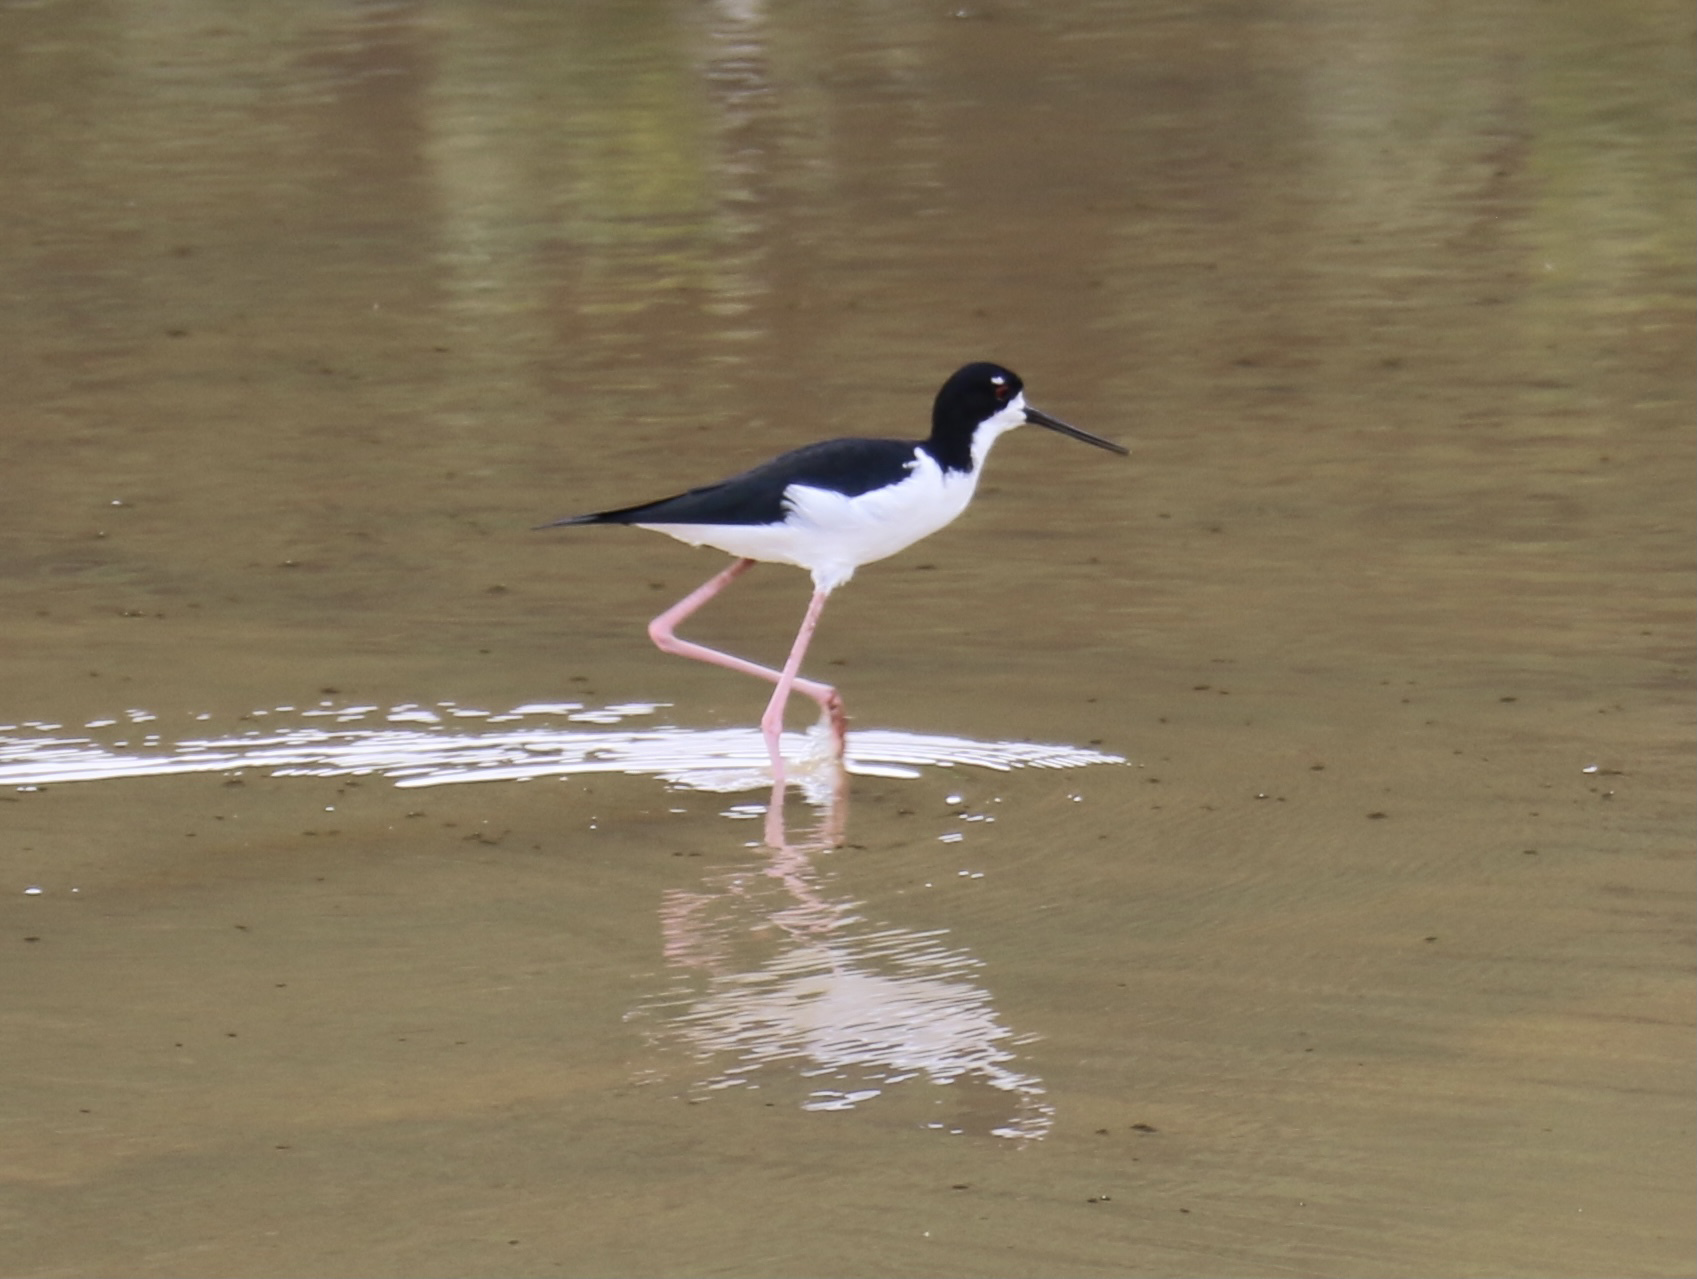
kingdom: Animalia
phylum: Chordata
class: Aves
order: Charadriiformes
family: Recurvirostridae
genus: Himantopus
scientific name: Himantopus mexicanus
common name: Black-necked stilt
